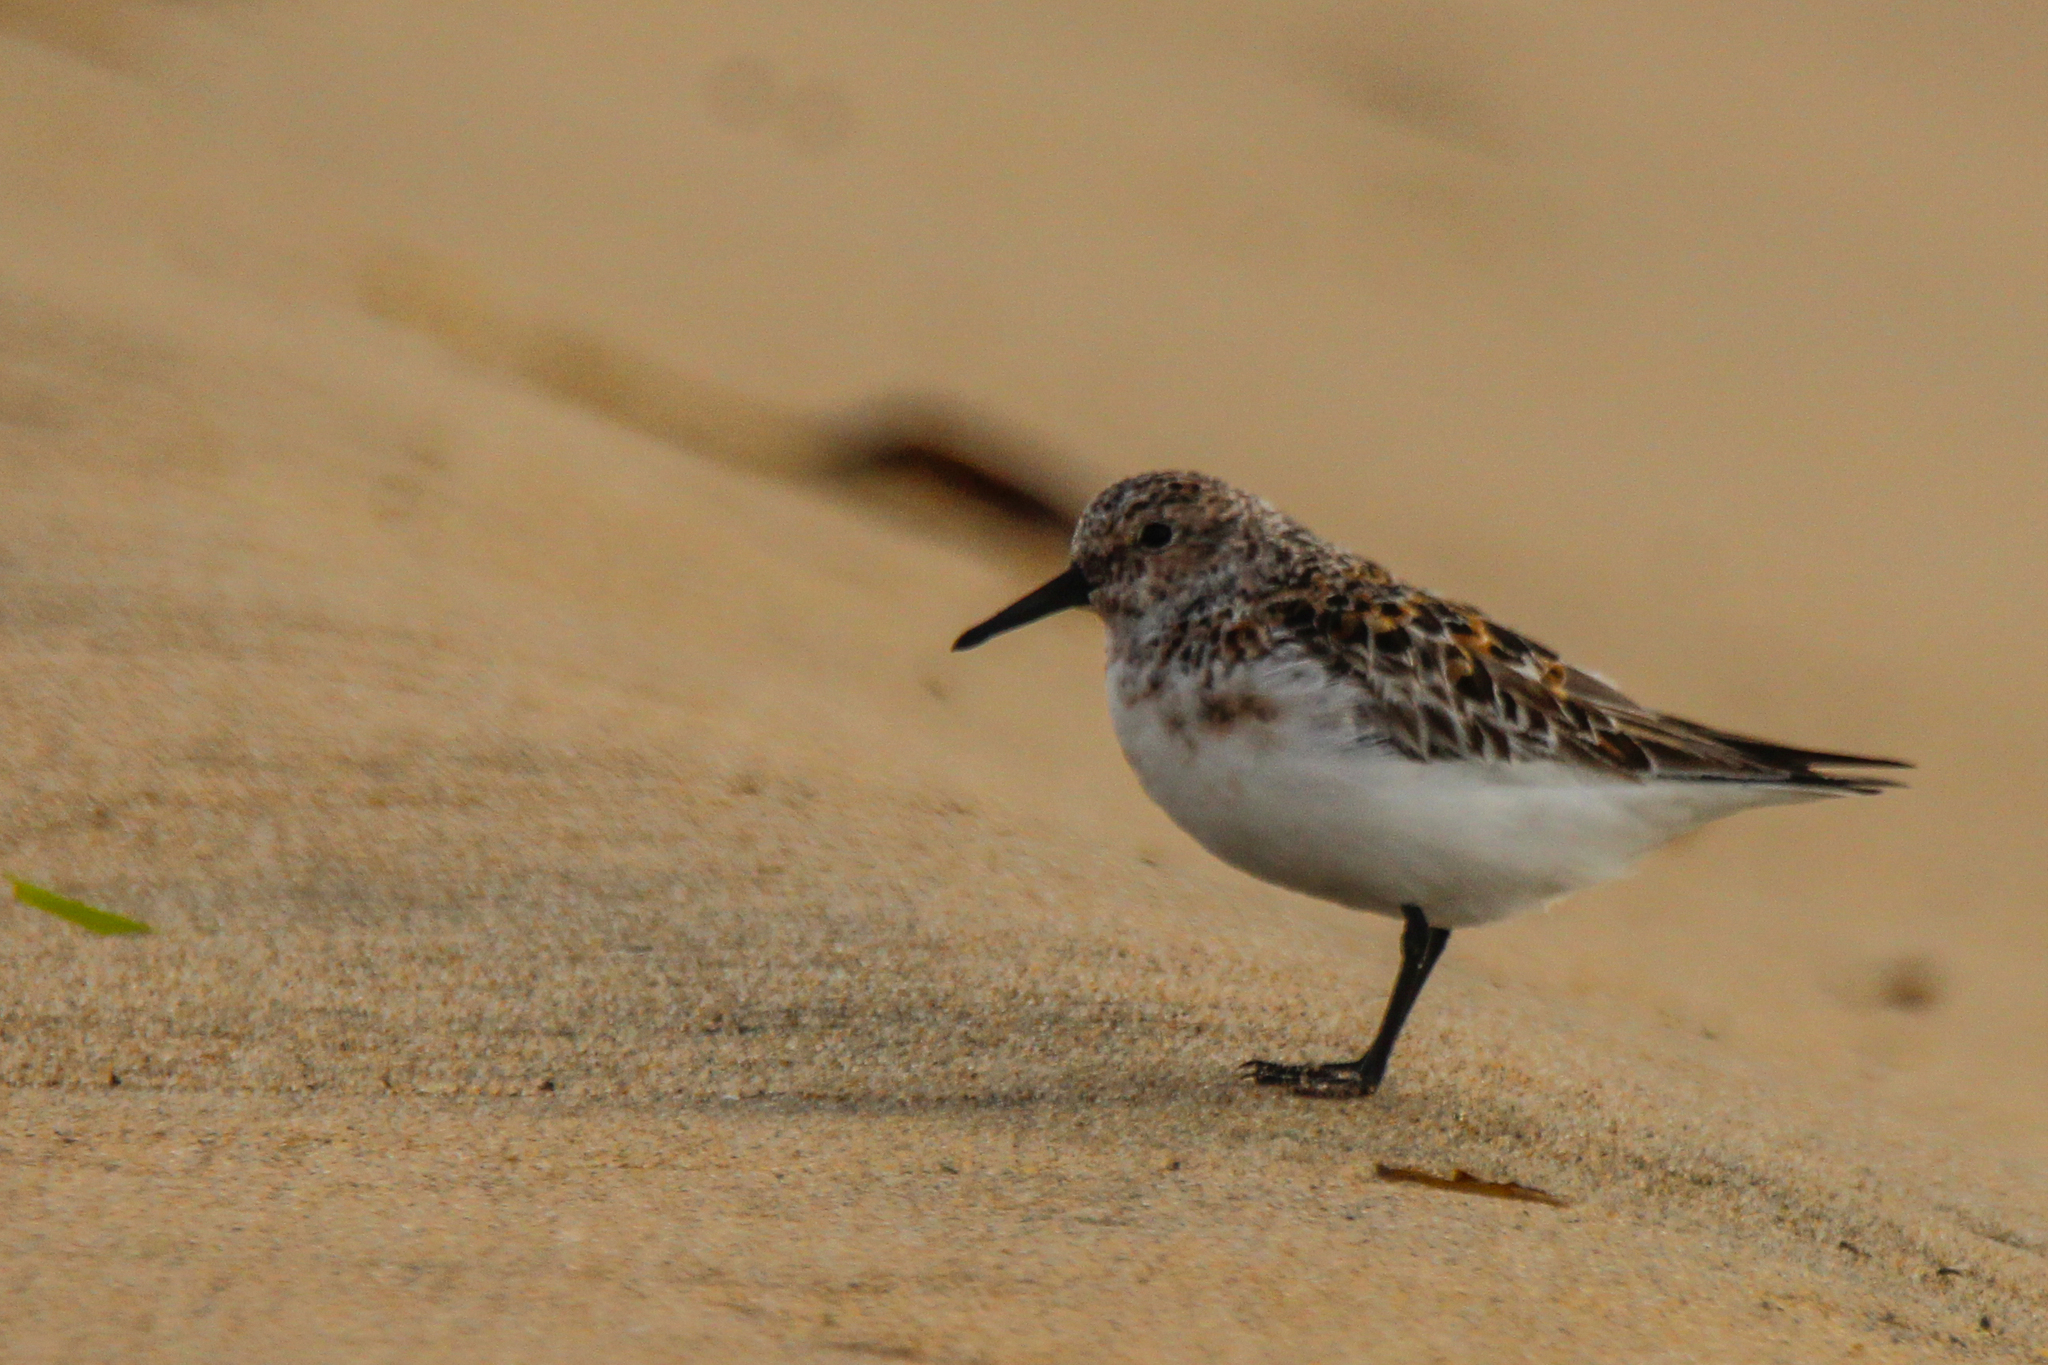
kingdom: Animalia
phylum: Chordata
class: Aves
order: Charadriiformes
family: Scolopacidae
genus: Calidris
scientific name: Calidris alba
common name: Sanderling
